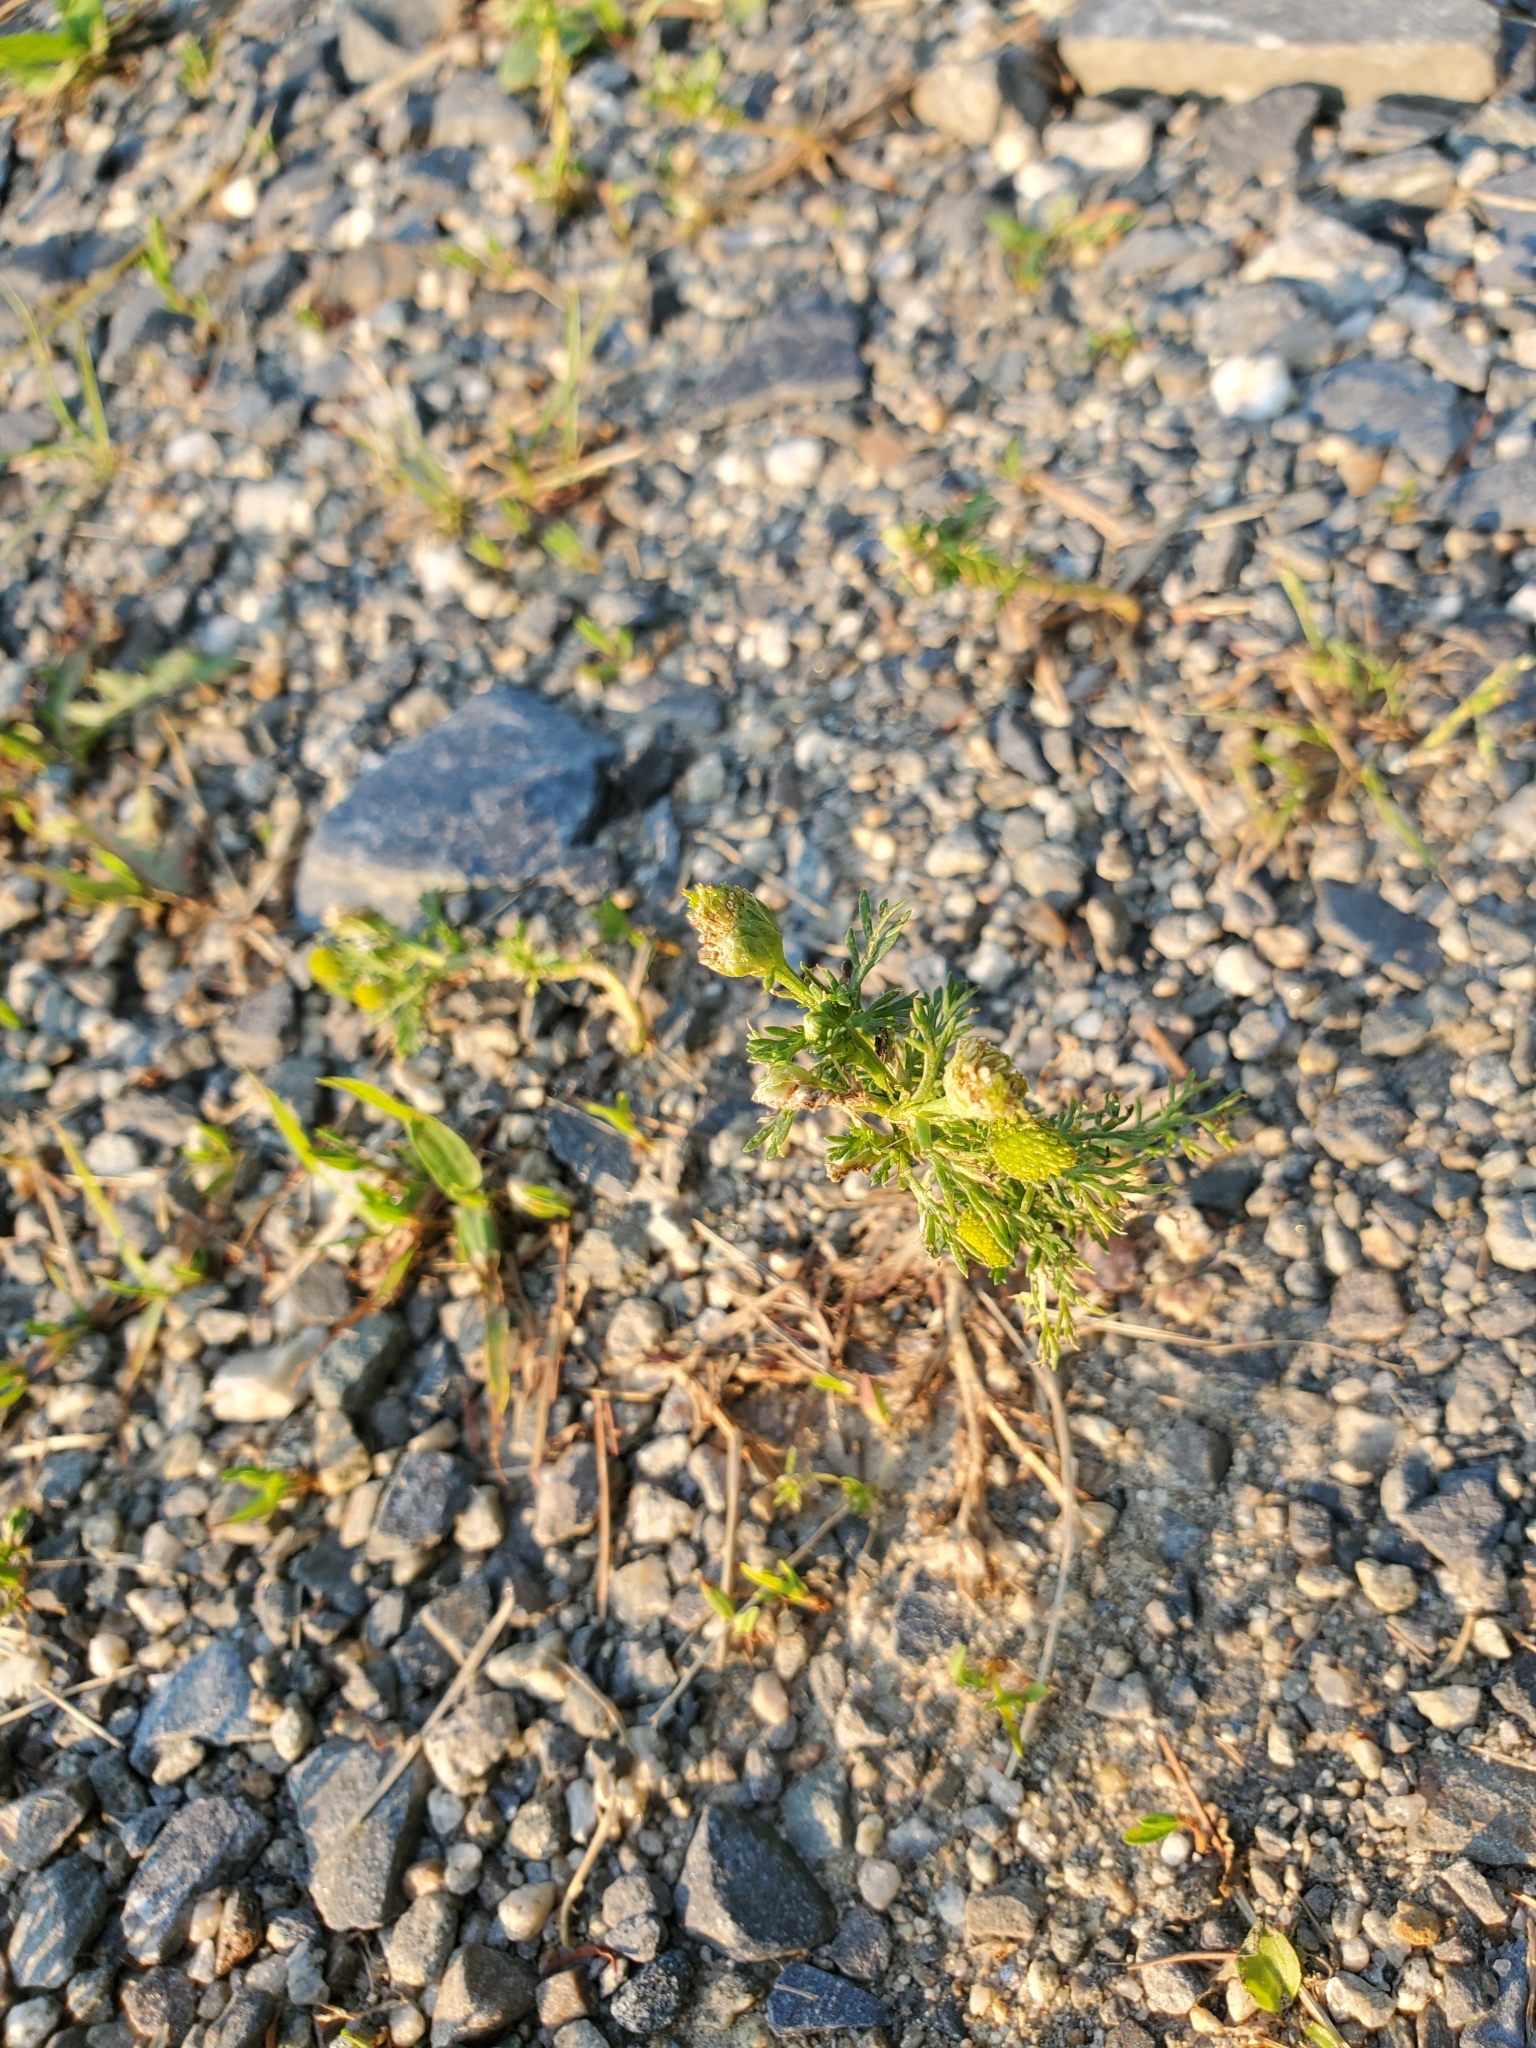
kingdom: Plantae
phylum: Tracheophyta
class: Magnoliopsida
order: Asterales
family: Asteraceae
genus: Matricaria
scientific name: Matricaria discoidea
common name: Disc mayweed
